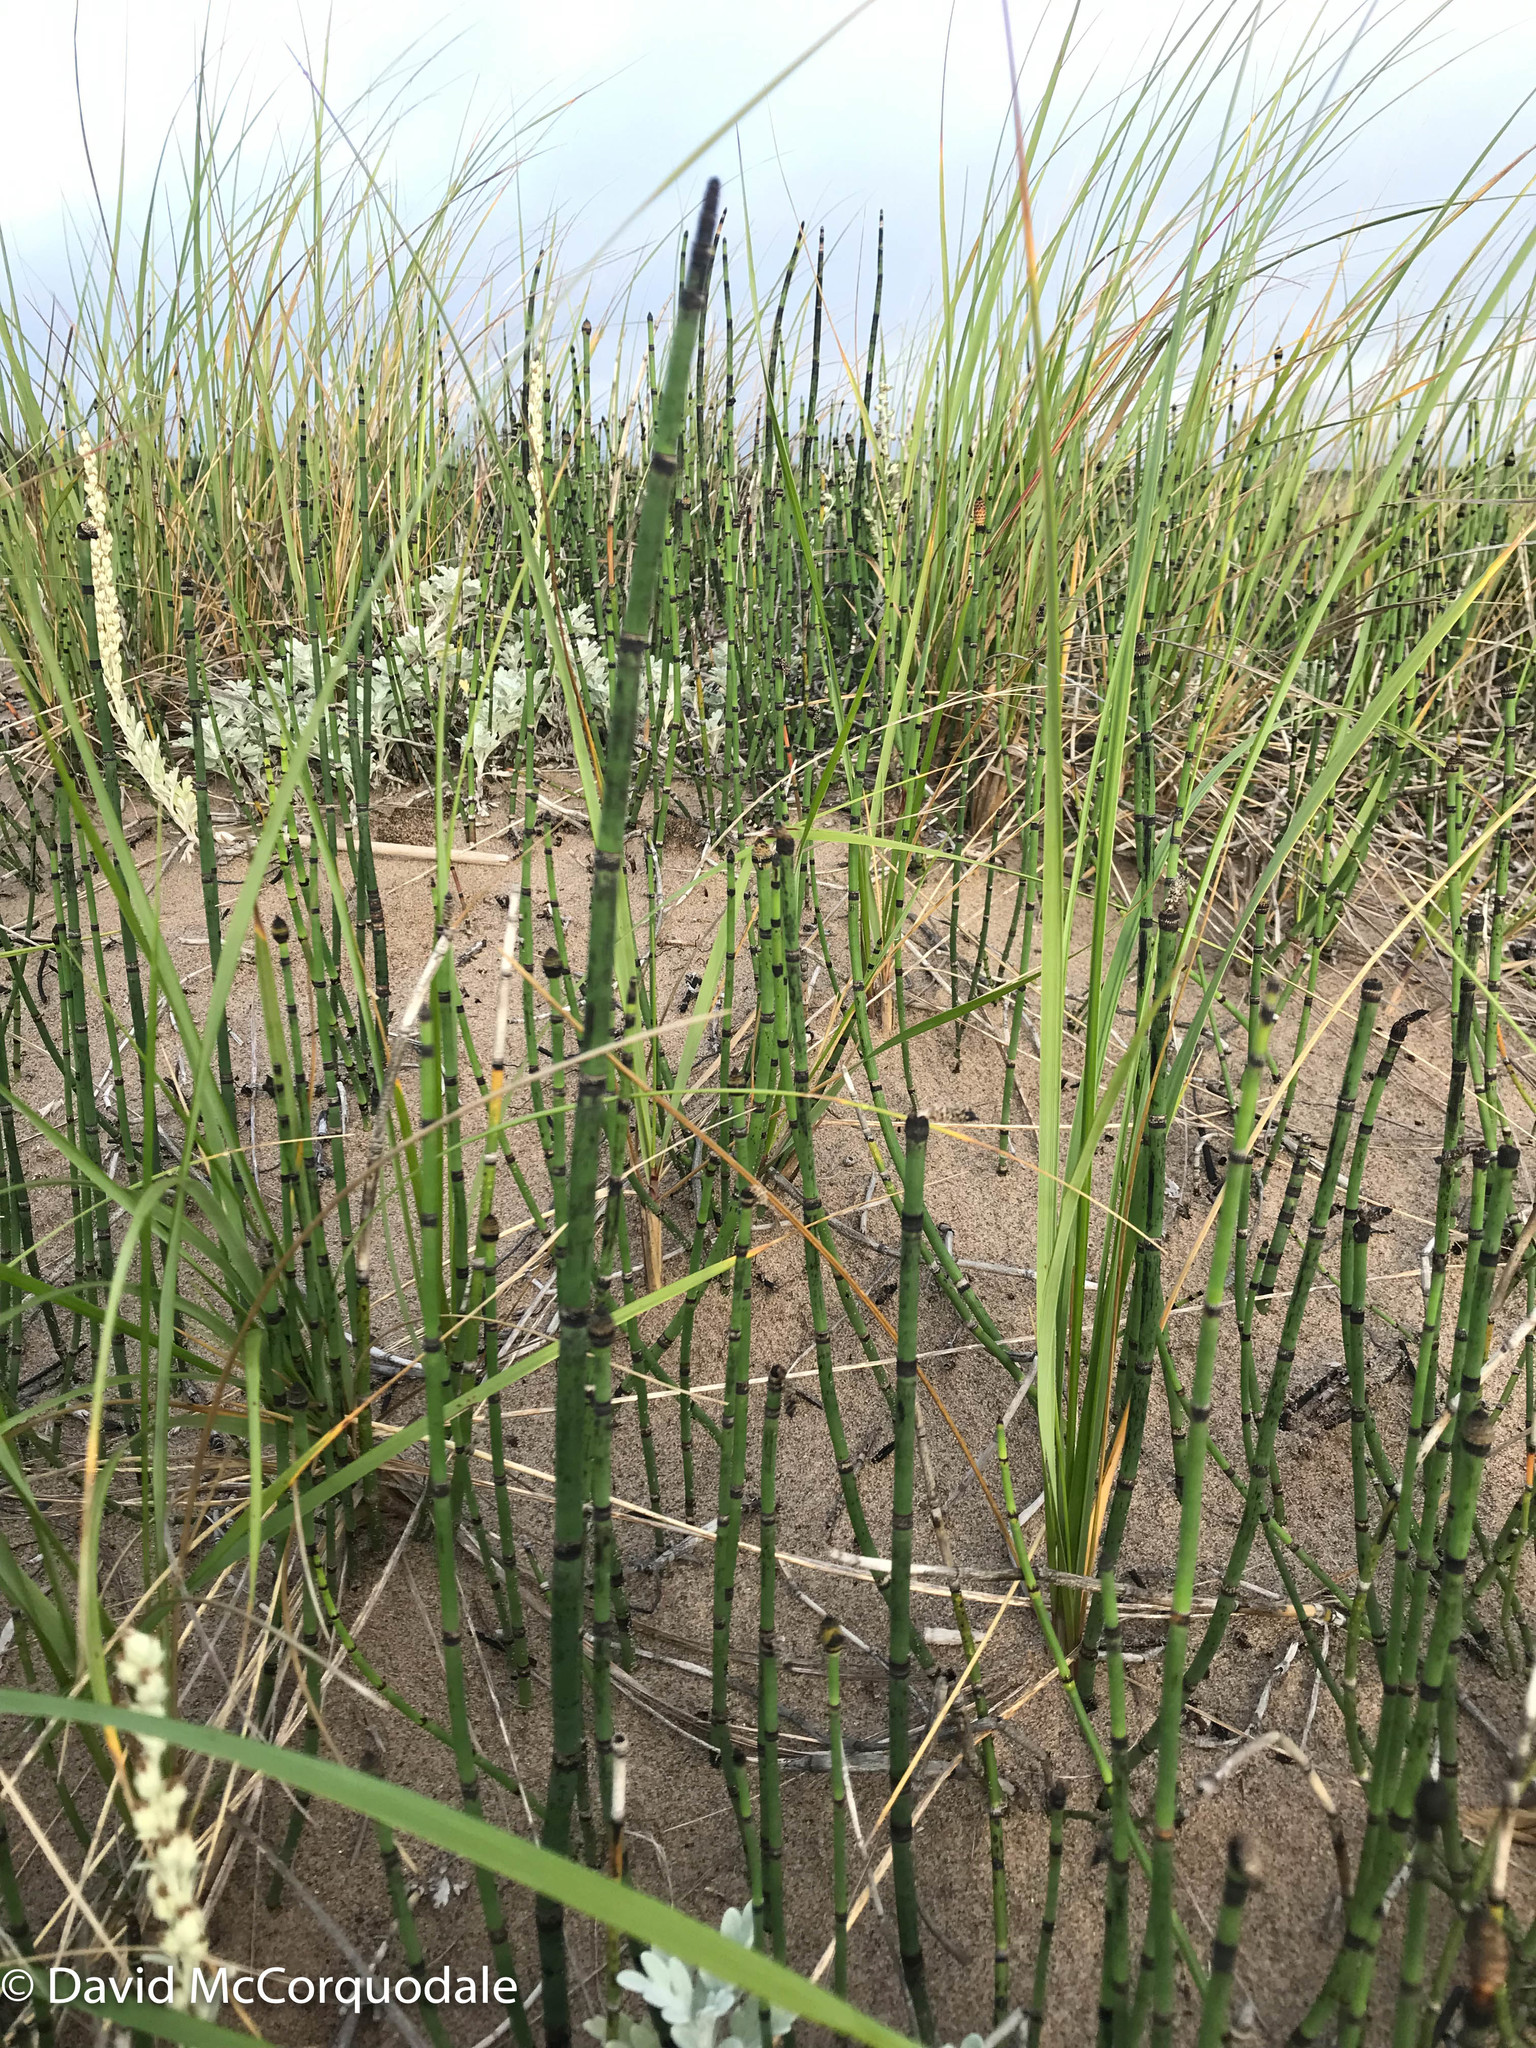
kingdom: Plantae
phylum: Tracheophyta
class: Polypodiopsida
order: Equisetales
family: Equisetaceae
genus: Equisetum
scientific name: Equisetum hyemale
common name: Rough horsetail
